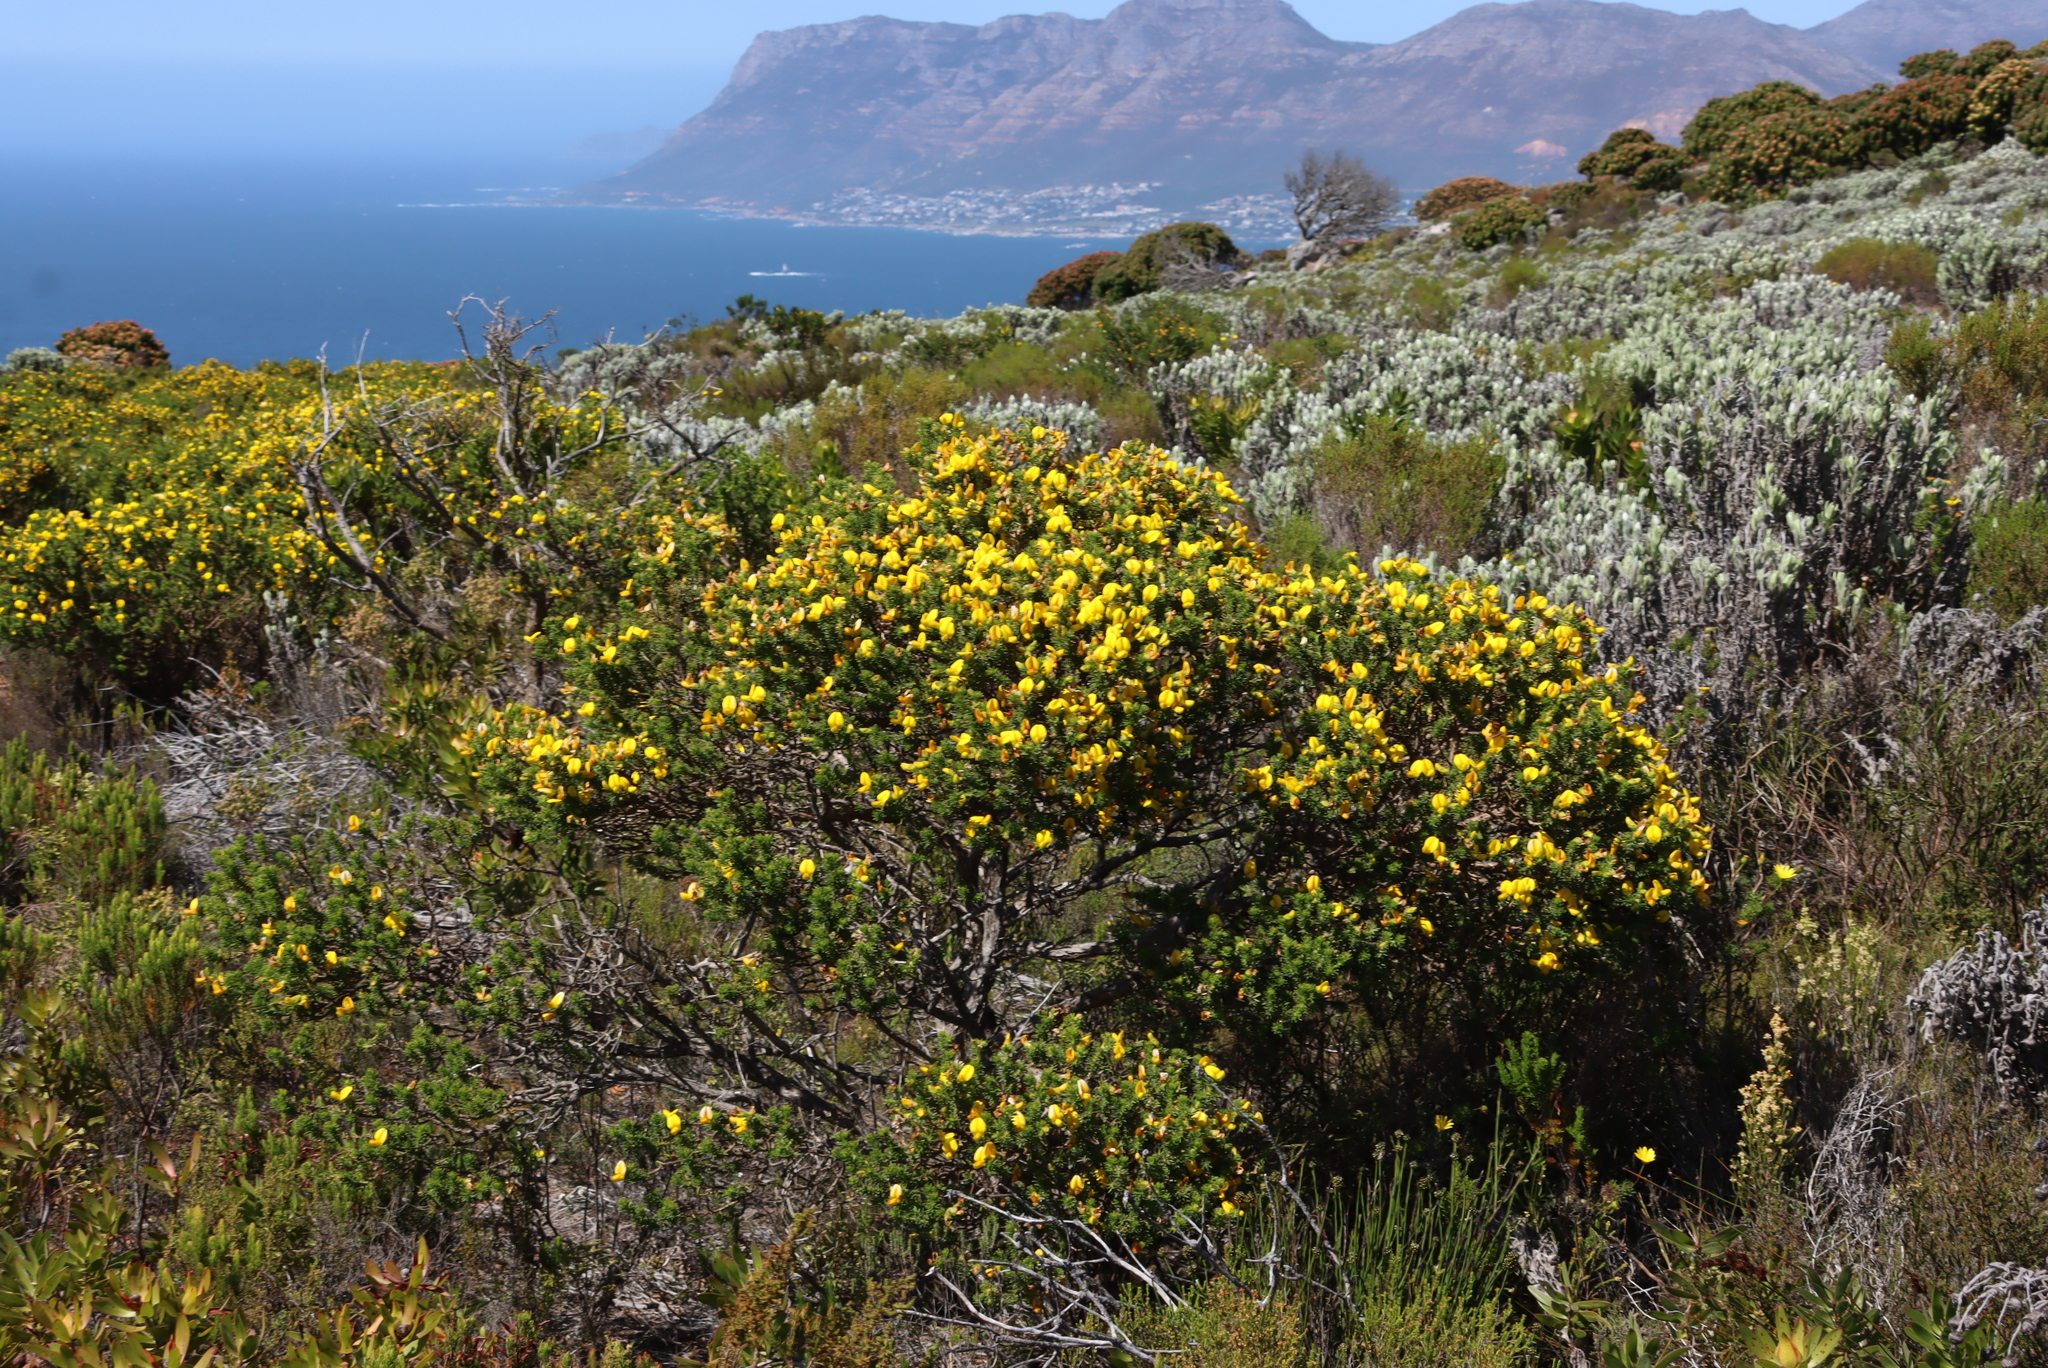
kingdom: Plantae
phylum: Tracheophyta
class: Magnoliopsida
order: Fabales
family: Fabaceae
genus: Aspalathus
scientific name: Aspalathus capensis
